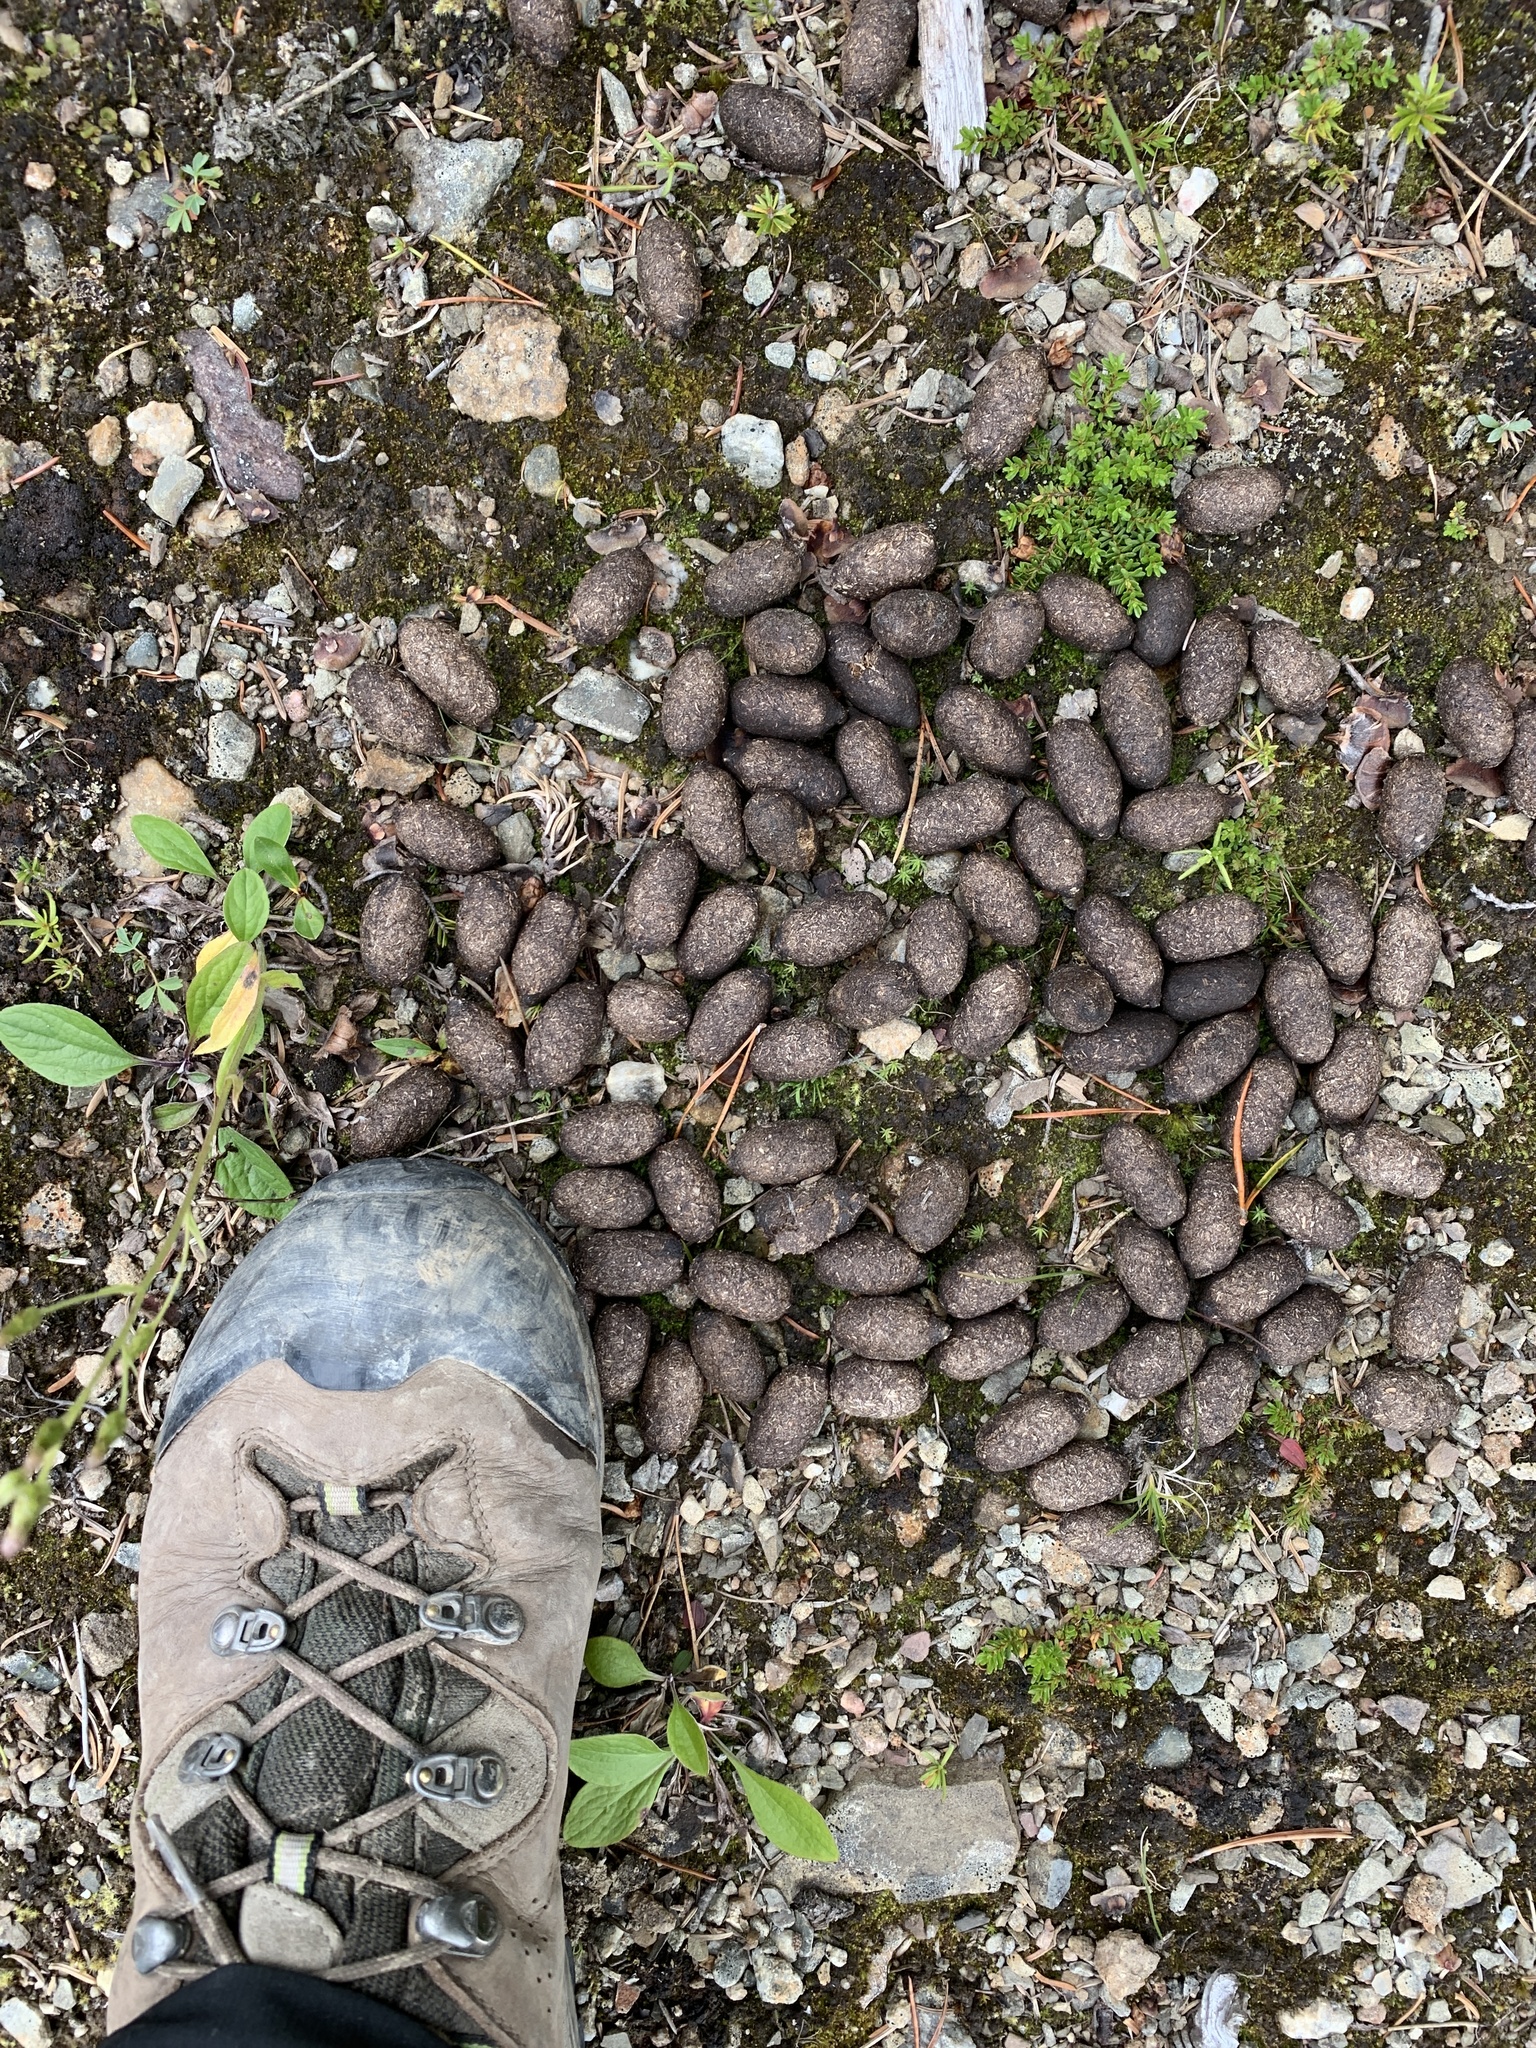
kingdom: Animalia
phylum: Chordata
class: Mammalia
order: Artiodactyla
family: Cervidae
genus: Alces
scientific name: Alces alces
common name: Moose
